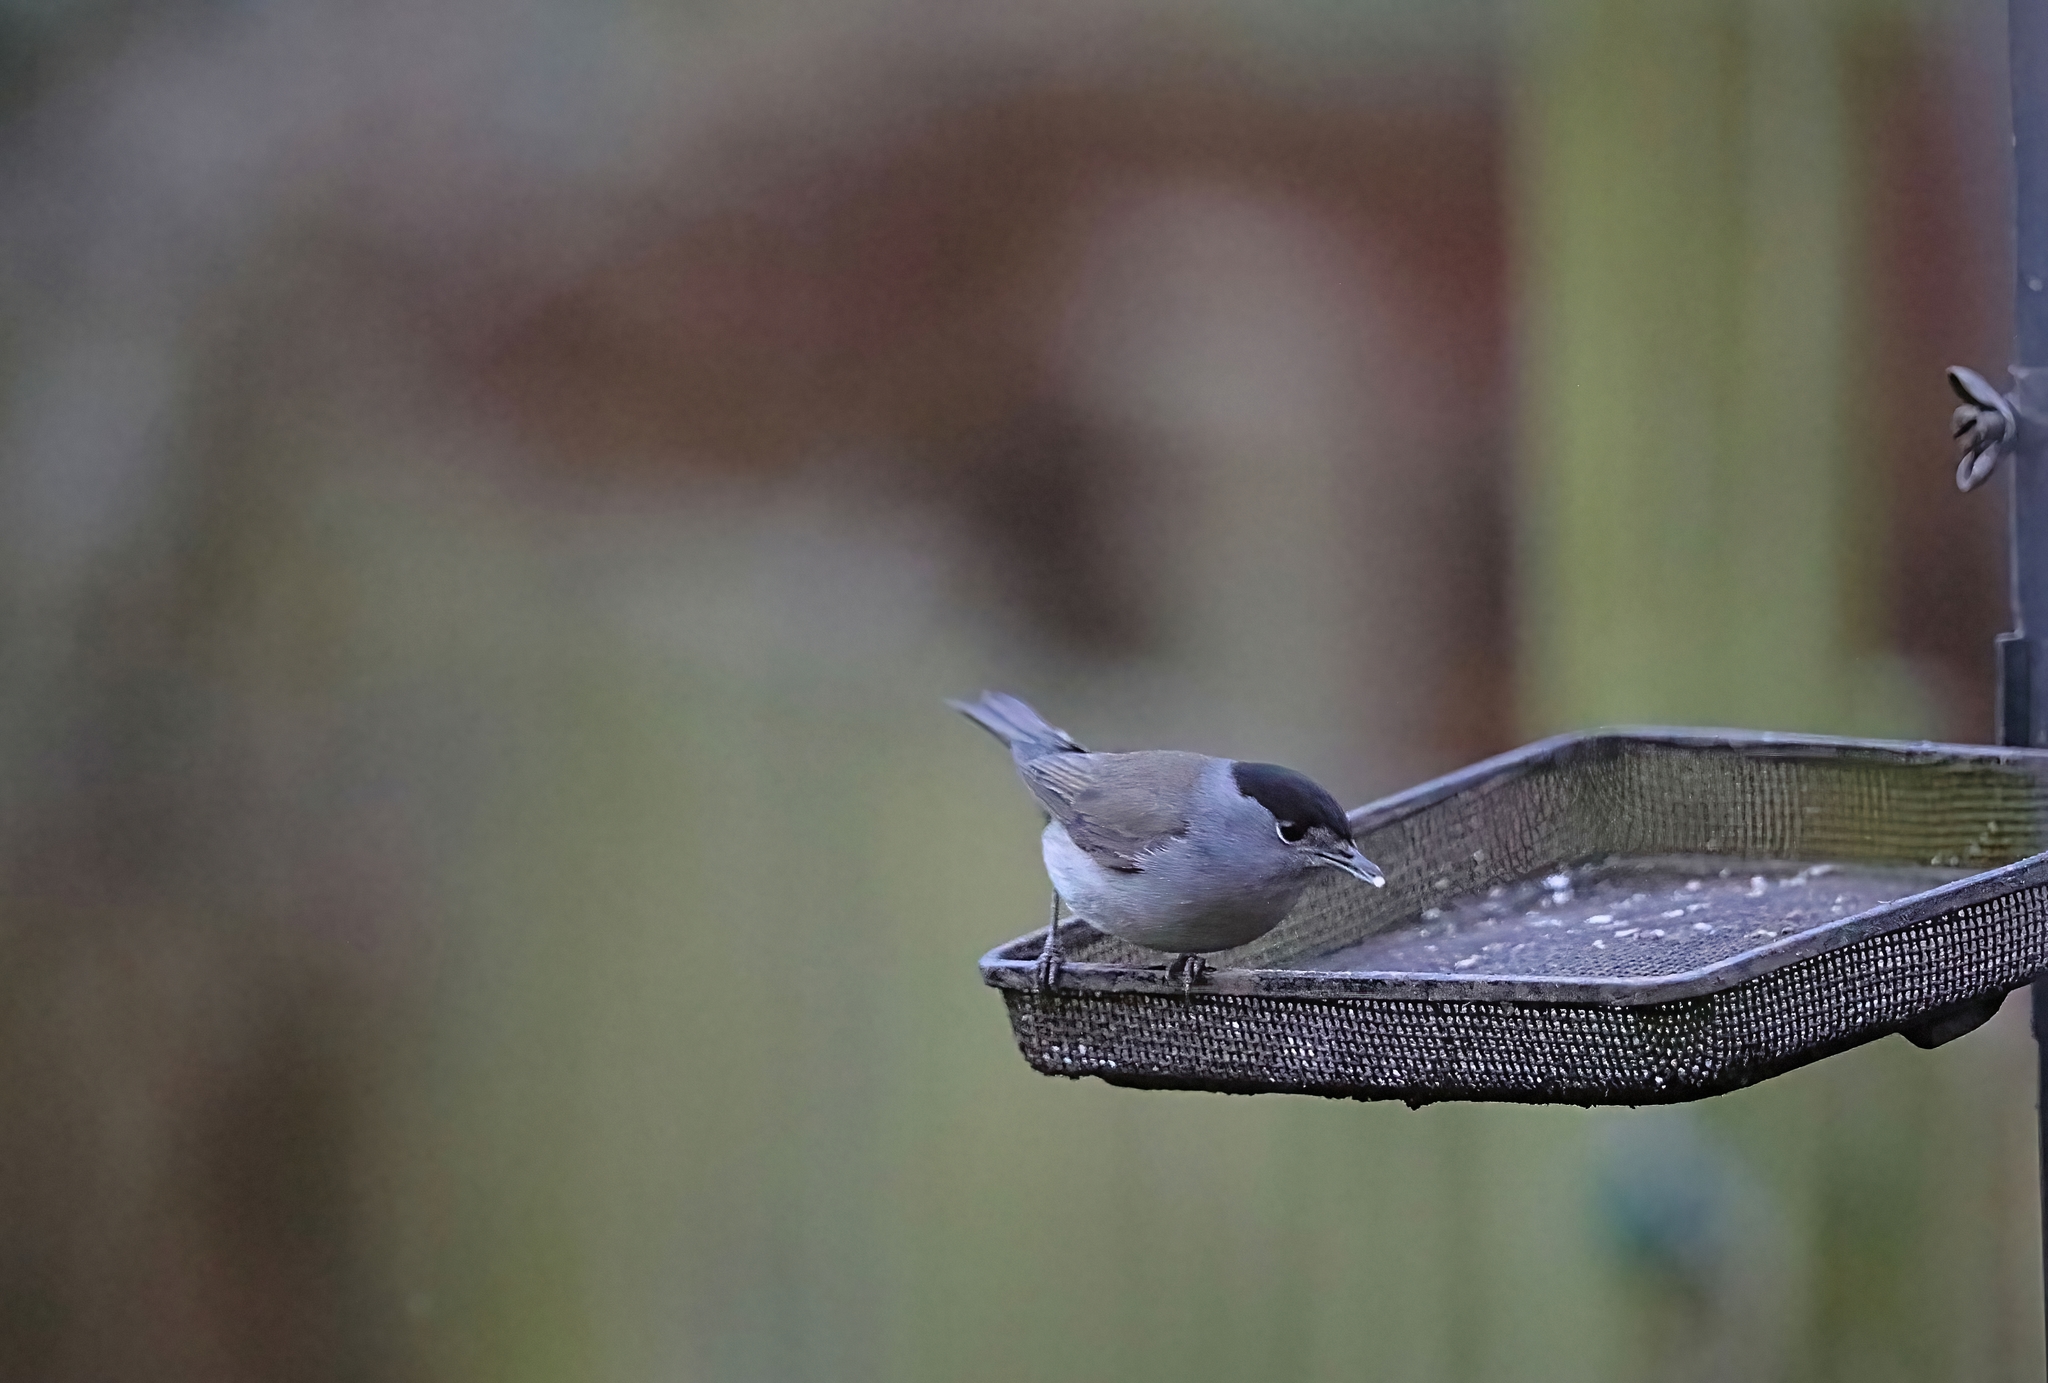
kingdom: Animalia
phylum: Chordata
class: Aves
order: Passeriformes
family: Sylviidae
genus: Sylvia
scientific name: Sylvia atricapilla
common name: Eurasian blackcap
